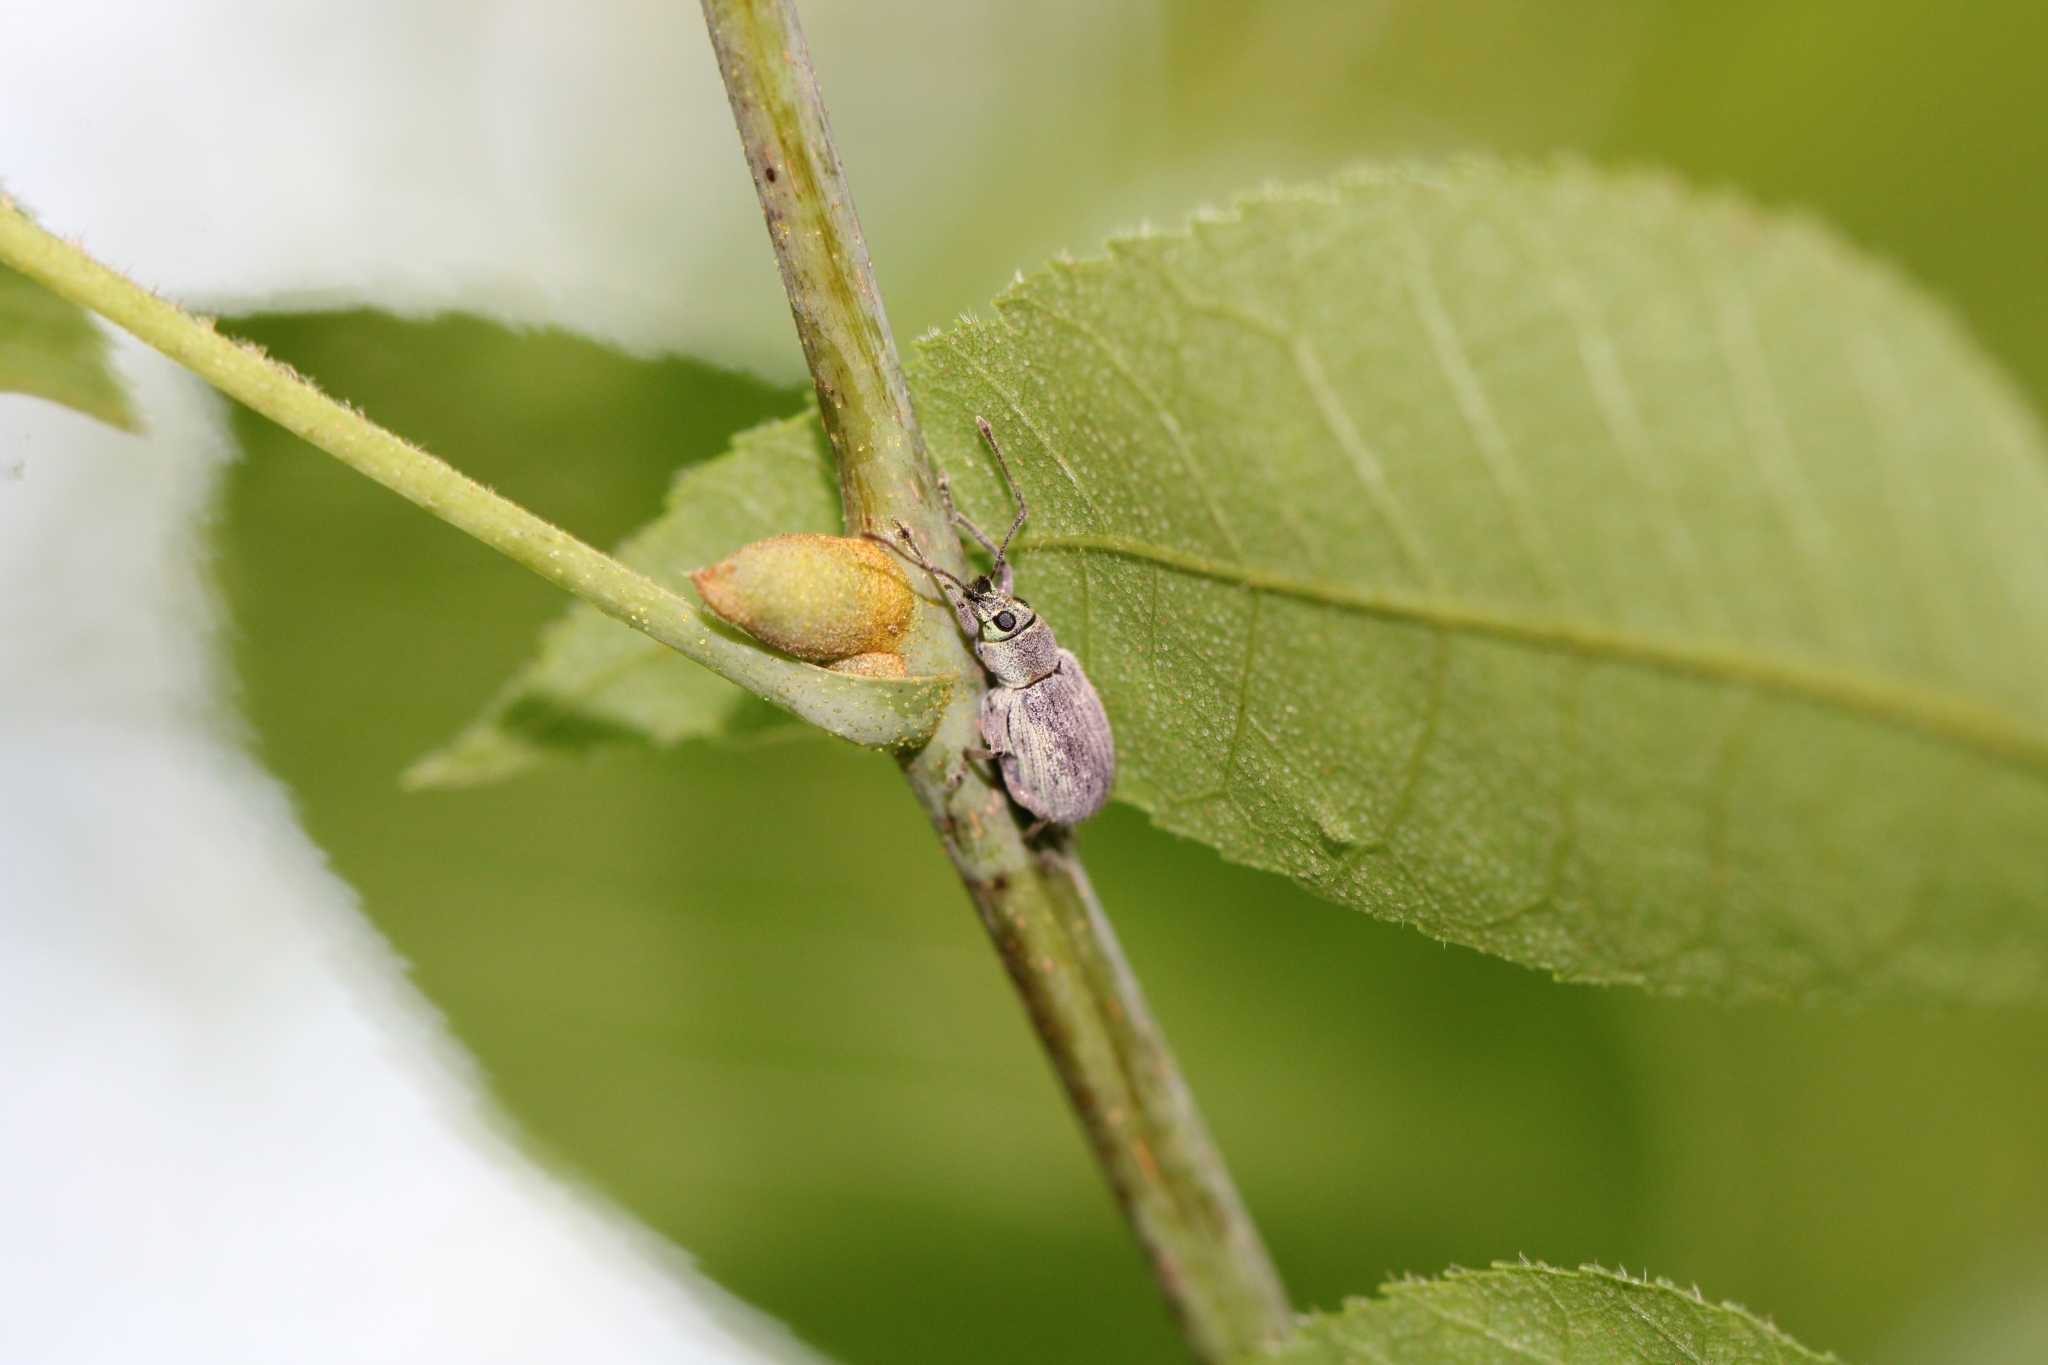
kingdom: Animalia
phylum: Arthropoda
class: Insecta
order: Coleoptera
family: Curculionidae
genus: Cyrtepistomus
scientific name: Cyrtepistomus castaneus
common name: Weevil
